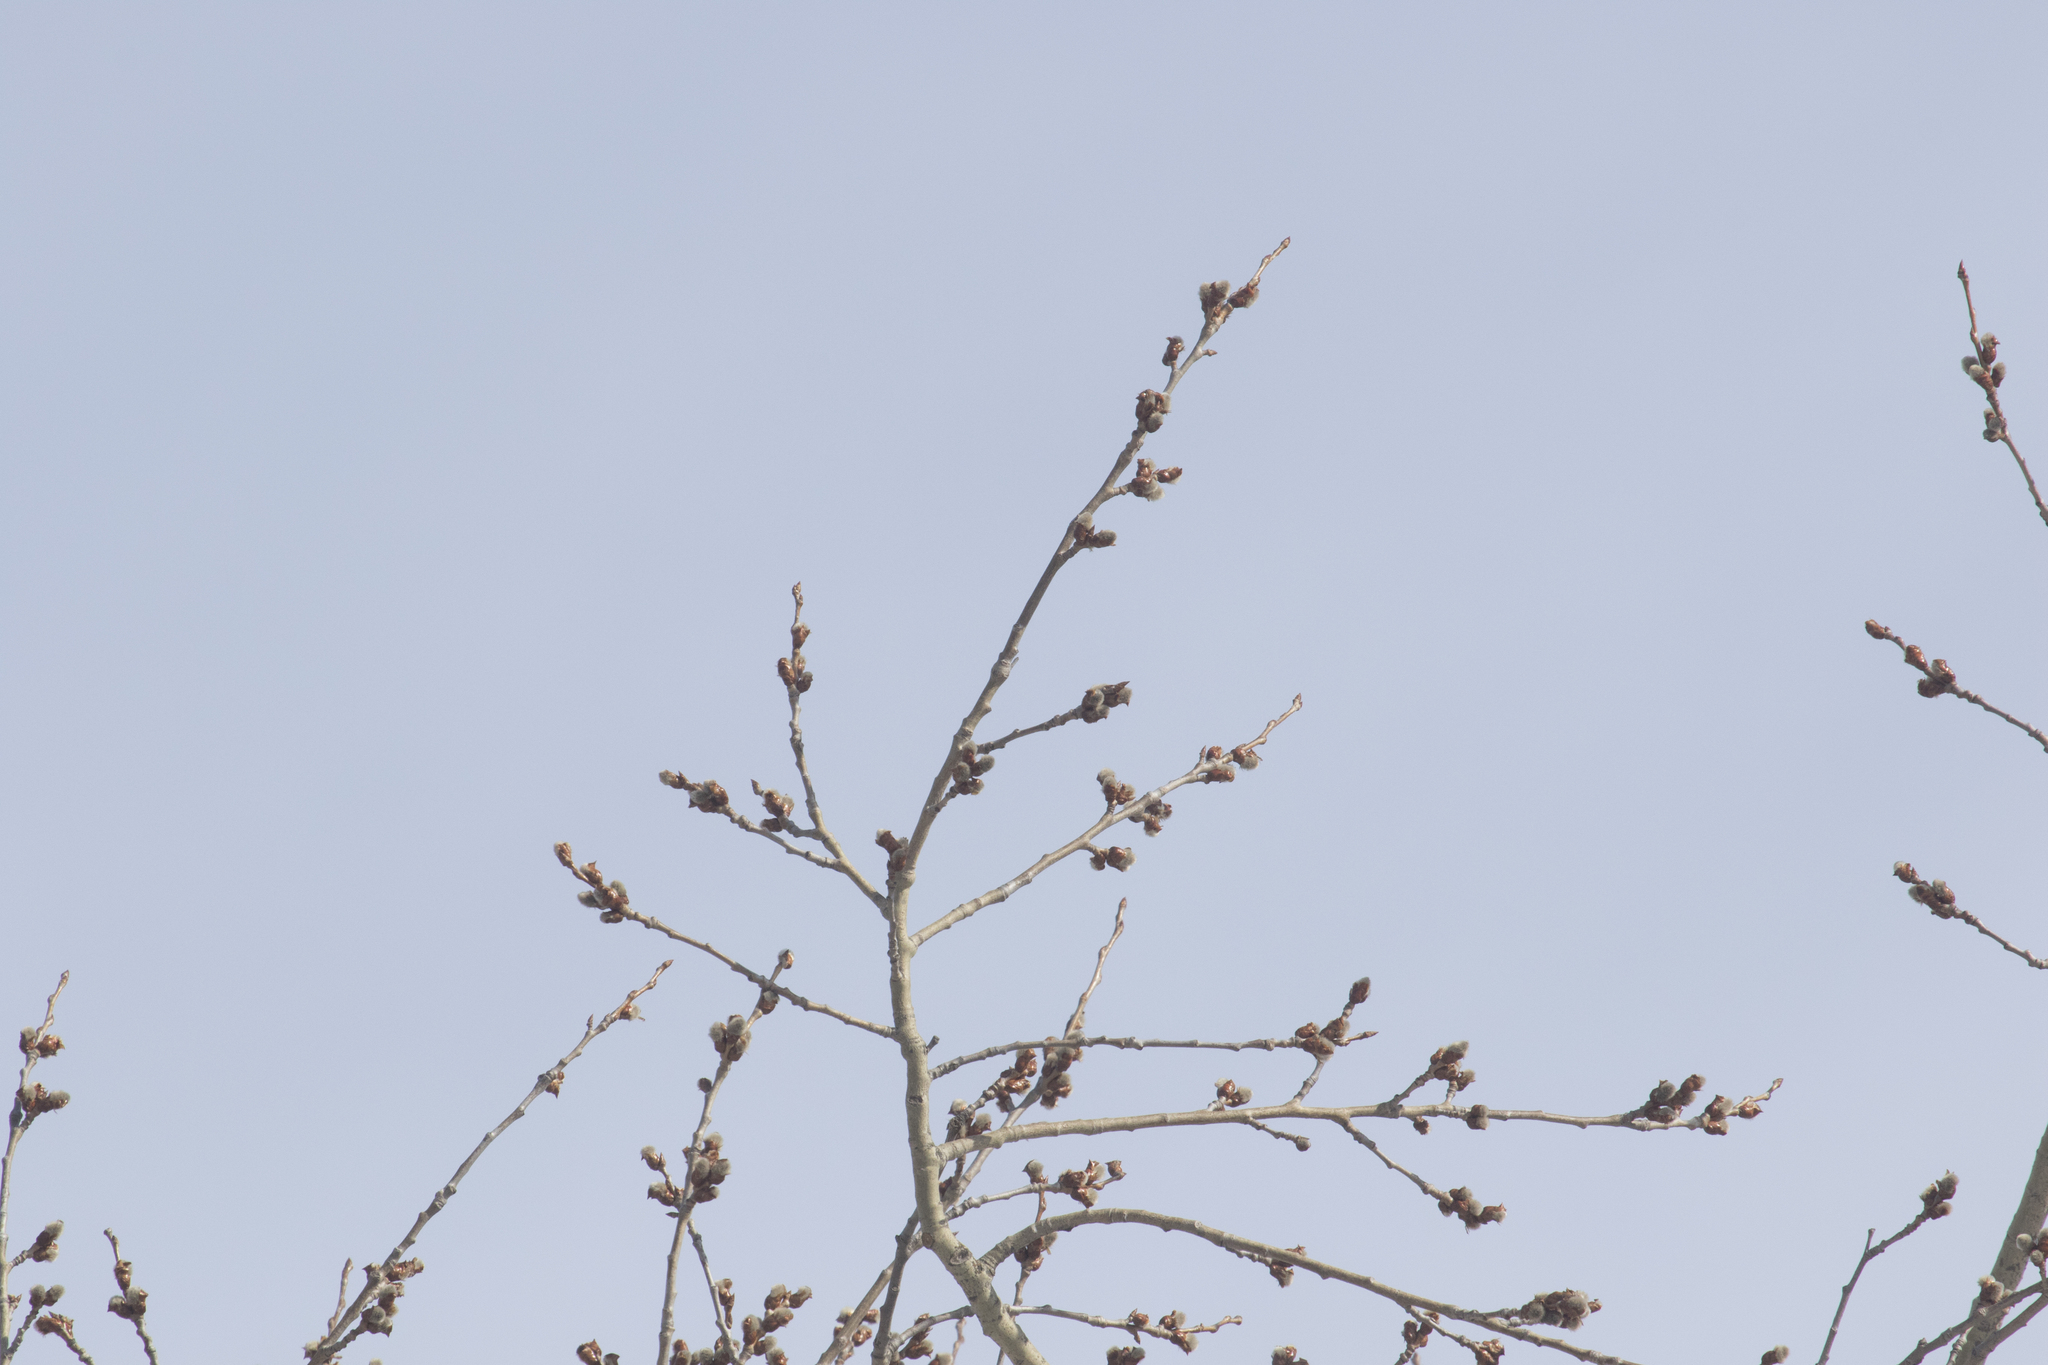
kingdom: Plantae
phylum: Tracheophyta
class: Magnoliopsida
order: Malpighiales
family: Salicaceae
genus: Populus
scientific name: Populus tremula
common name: European aspen
